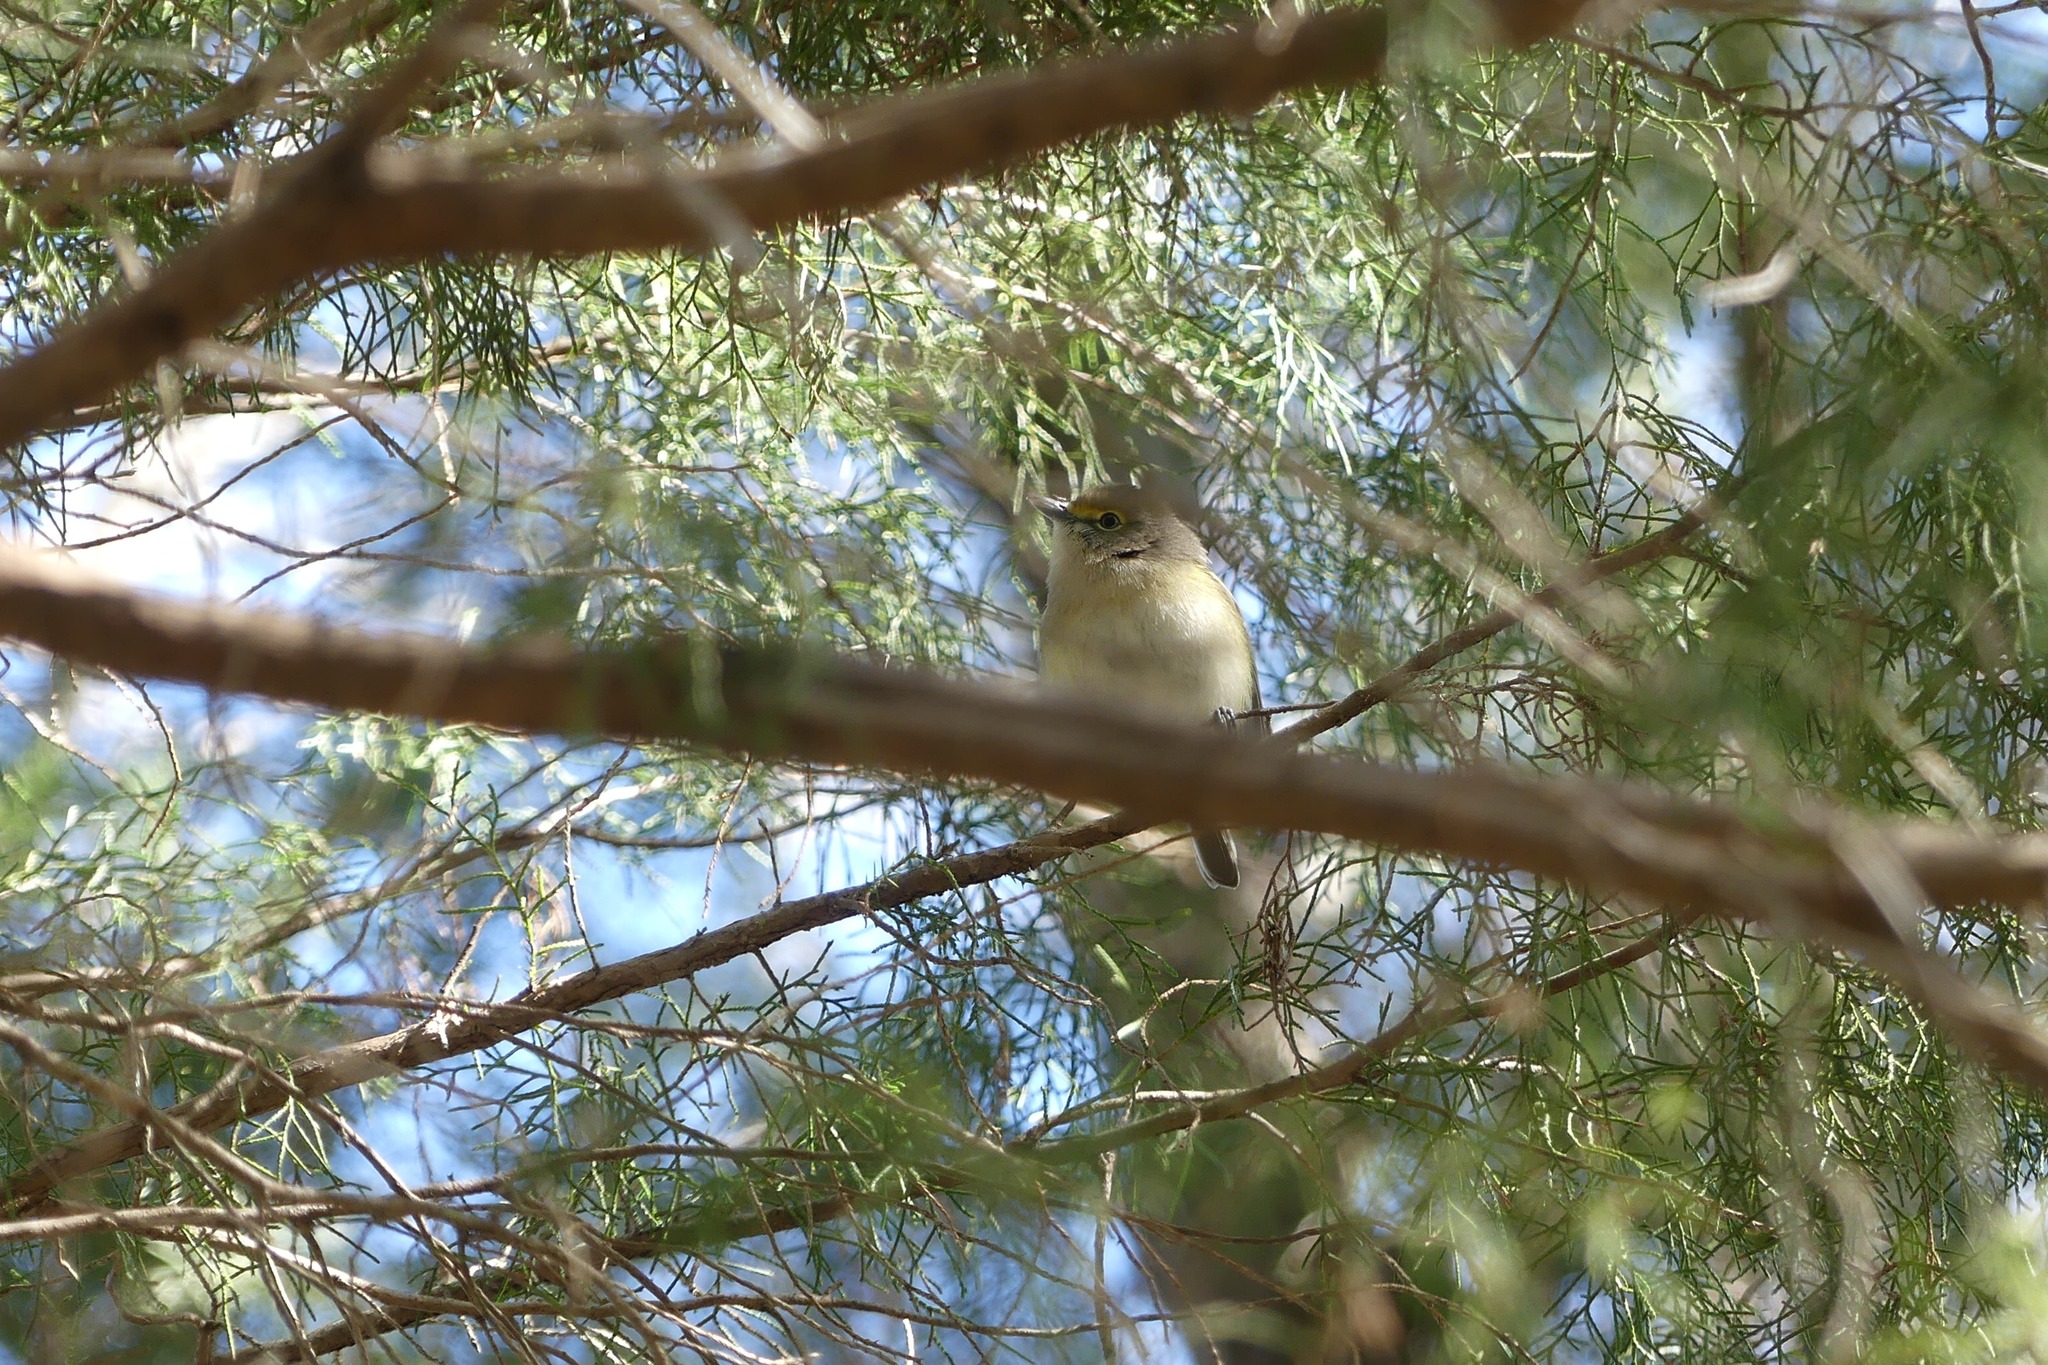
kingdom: Animalia
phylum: Chordata
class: Aves
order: Passeriformes
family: Vireonidae
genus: Vireo
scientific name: Vireo griseus
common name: White-eyed vireo
